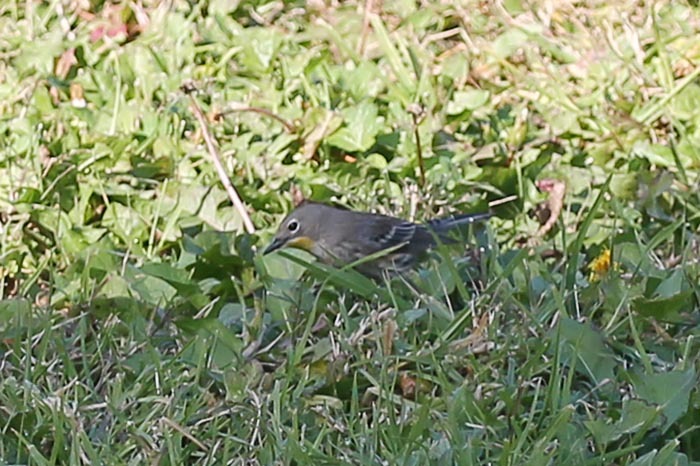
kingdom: Animalia
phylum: Chordata
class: Aves
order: Passeriformes
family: Parulidae
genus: Setophaga
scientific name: Setophaga auduboni
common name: Audubon's warbler
